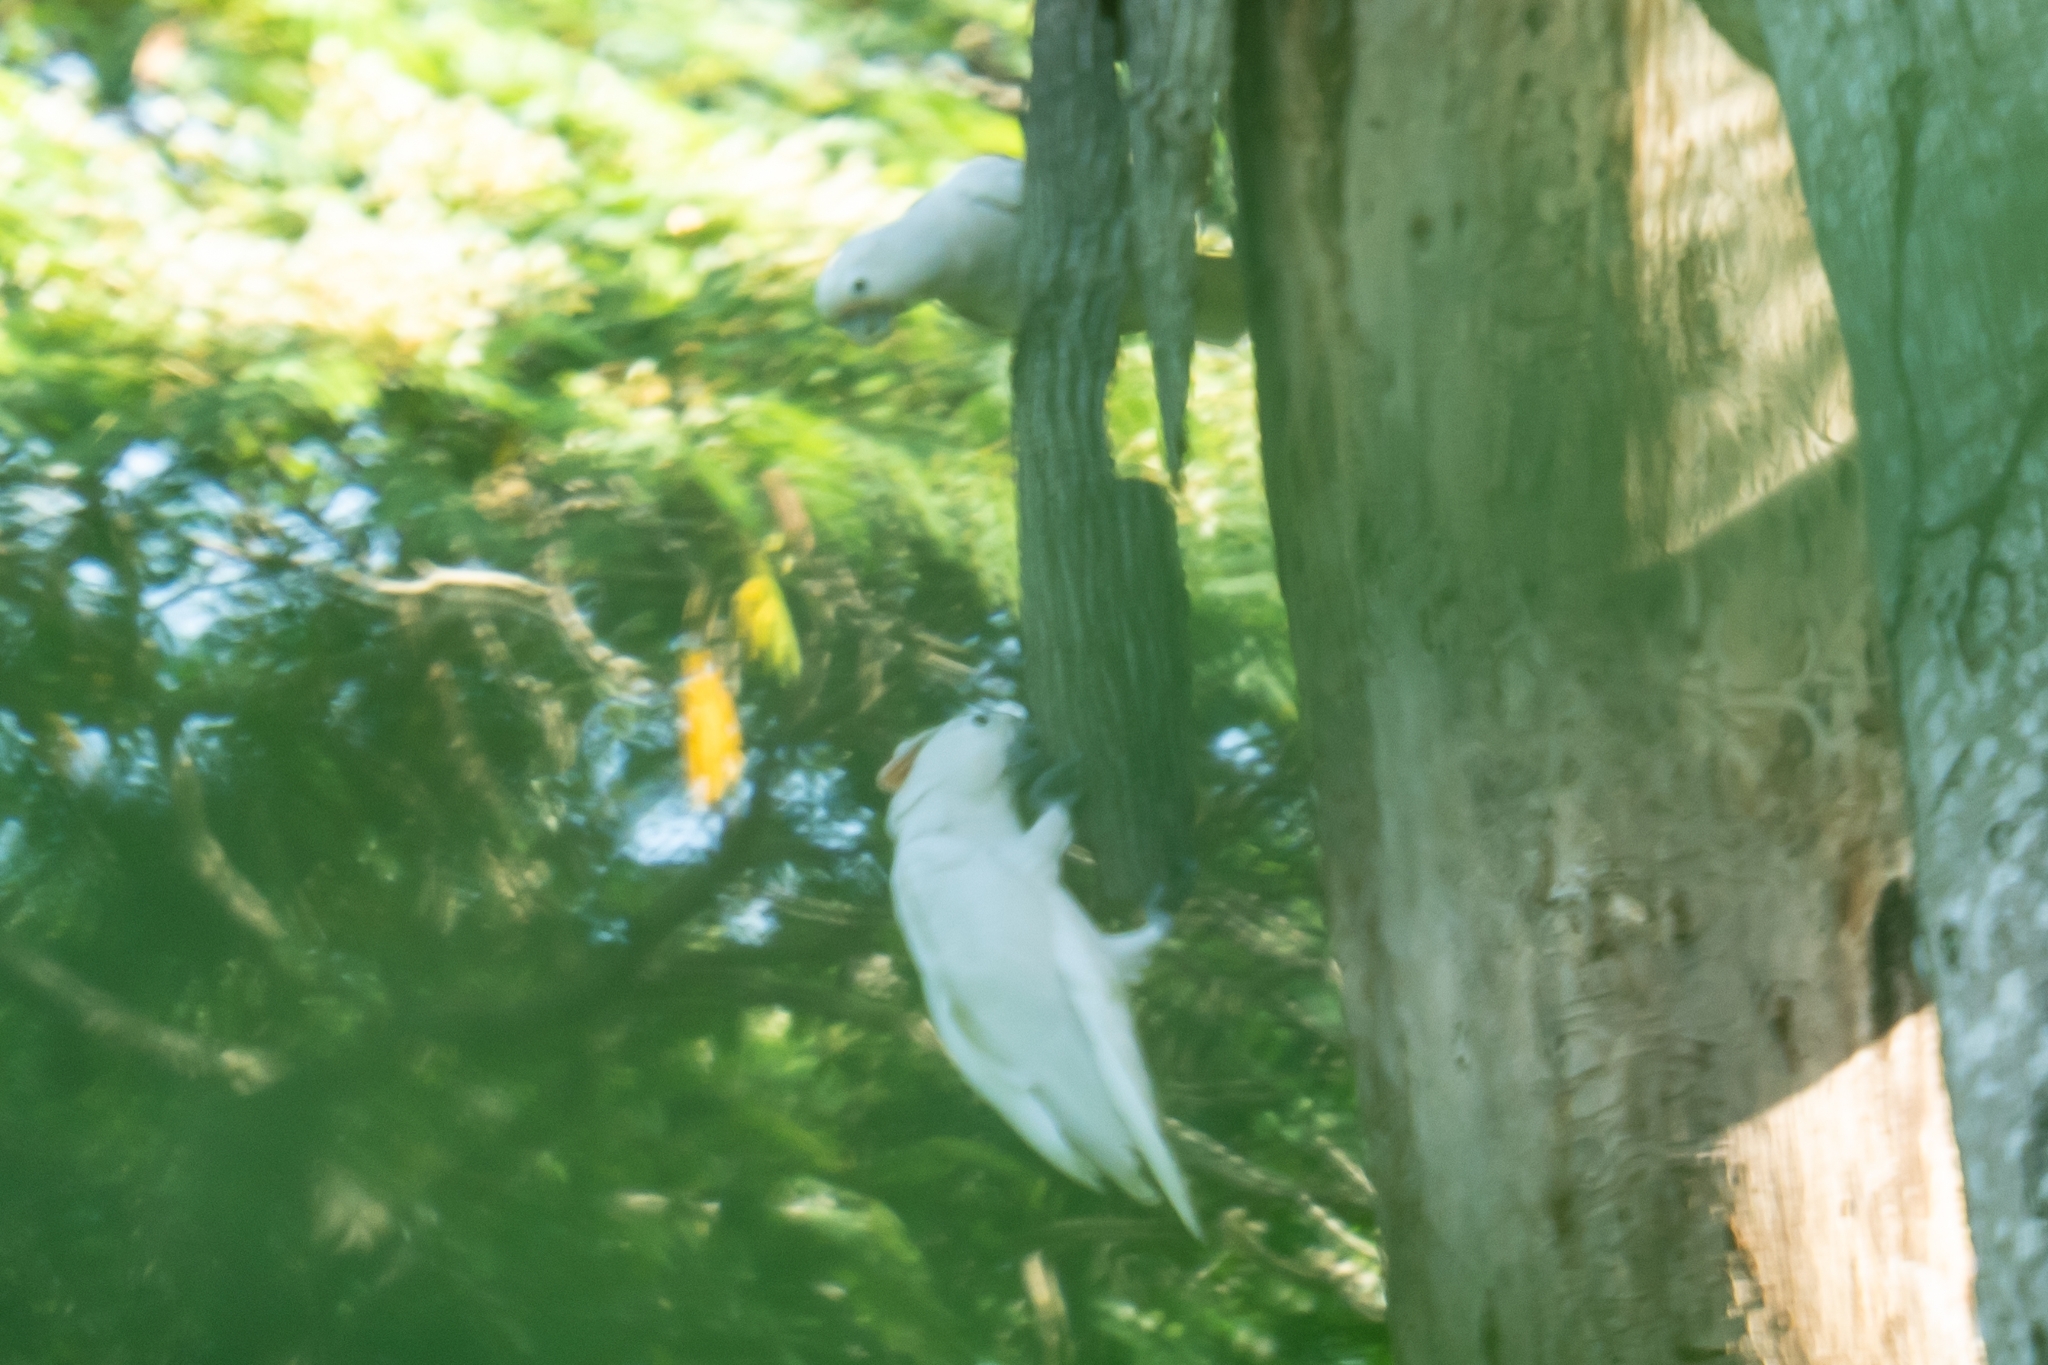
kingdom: Animalia
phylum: Chordata
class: Aves
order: Psittaciformes
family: Psittacidae
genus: Cacatua
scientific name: Cacatua goffiniana
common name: Tanimbar corella
